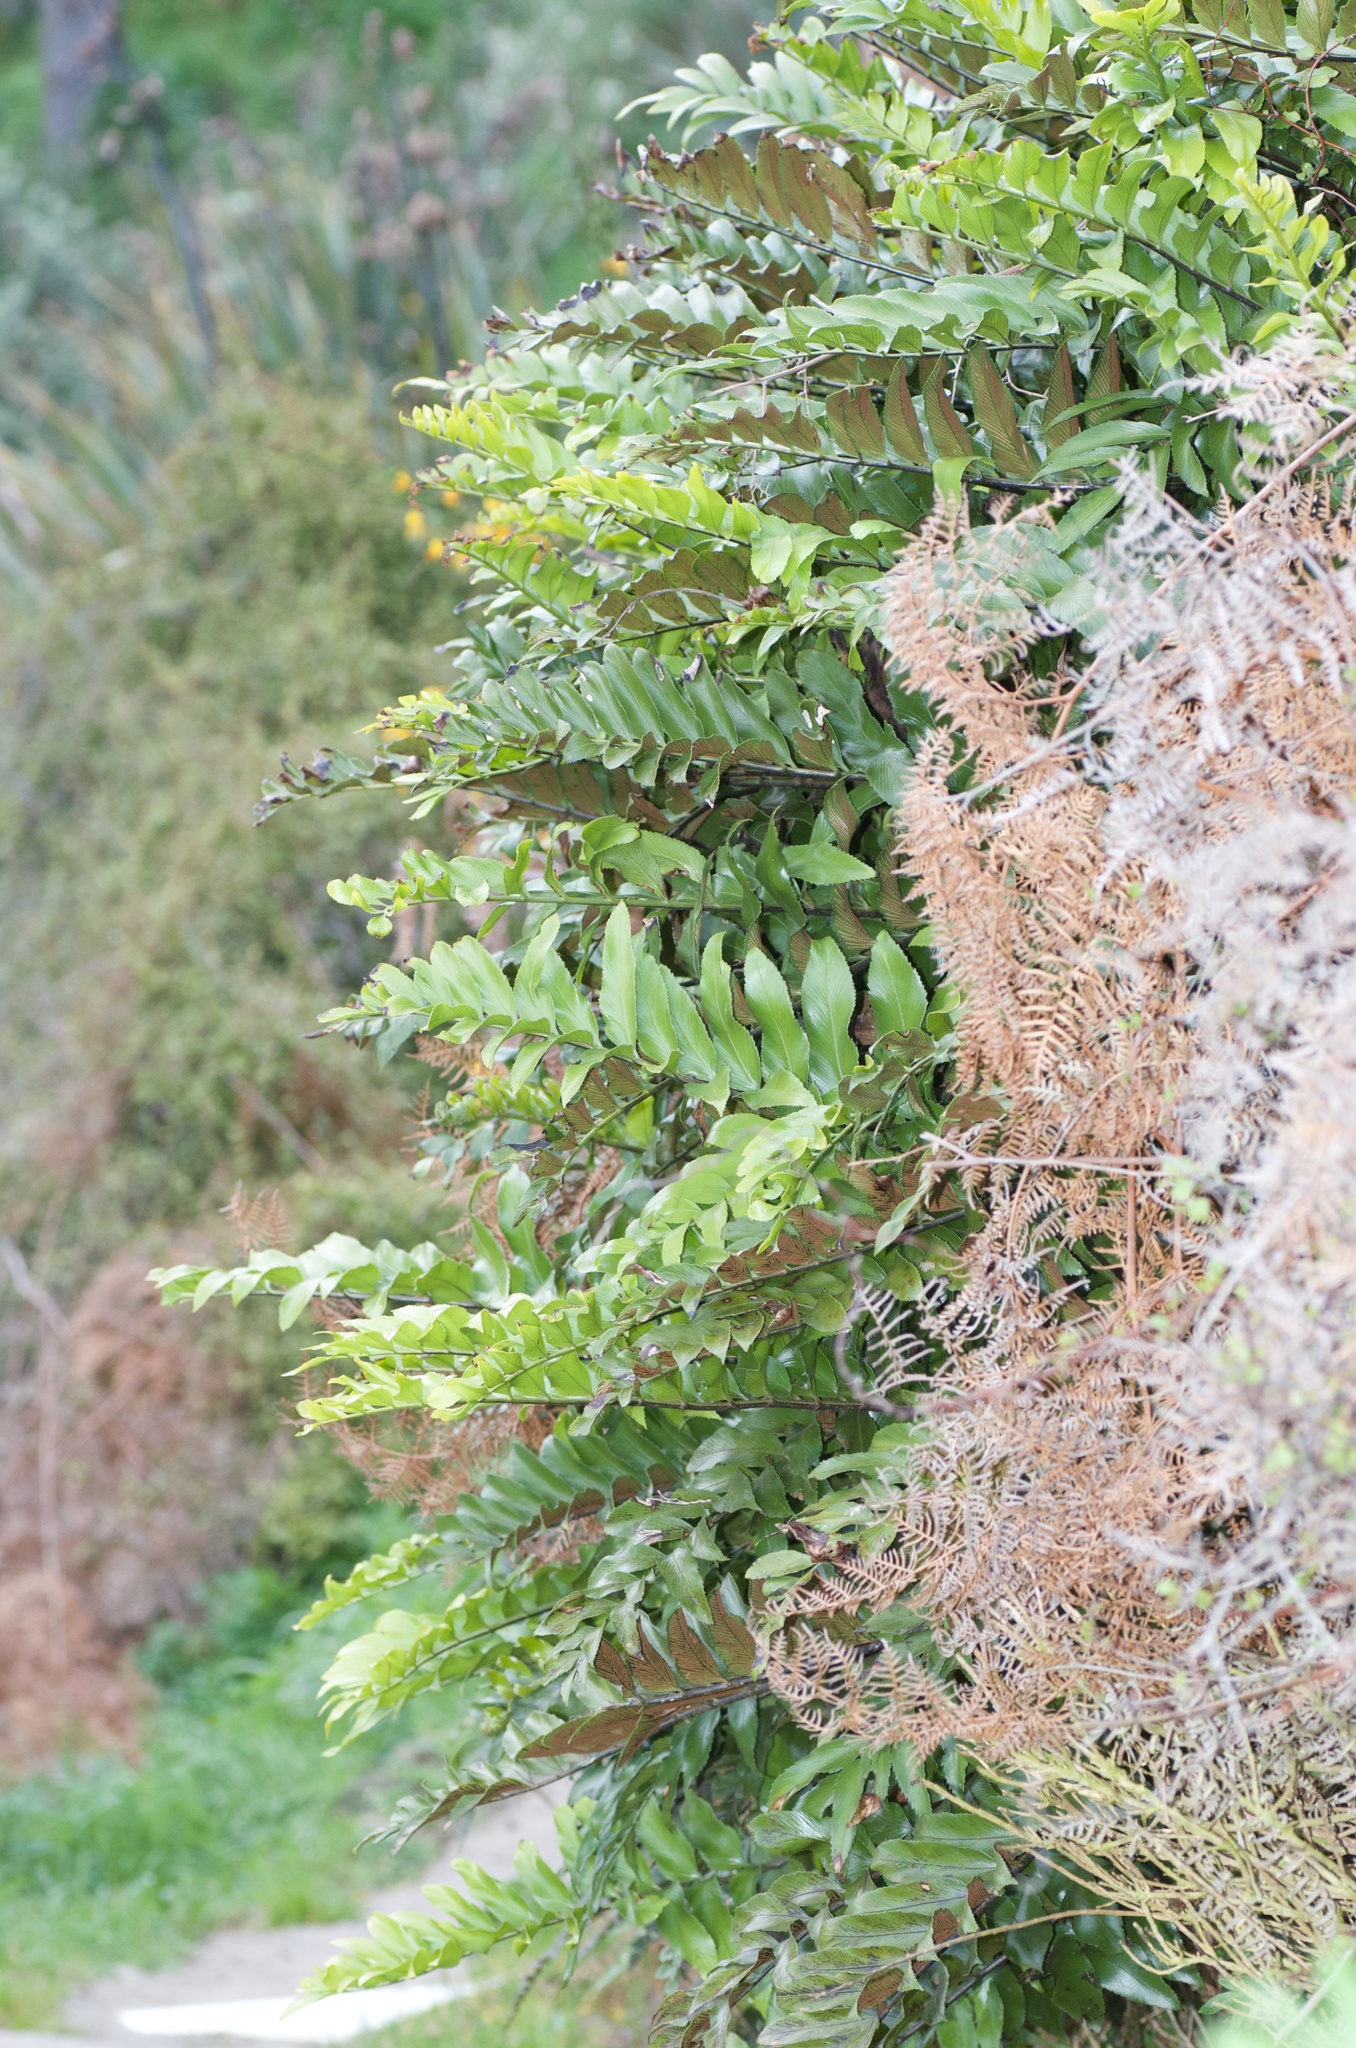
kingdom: Plantae
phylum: Tracheophyta
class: Polypodiopsida
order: Polypodiales
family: Aspleniaceae
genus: Asplenium
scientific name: Asplenium oblongifolium
